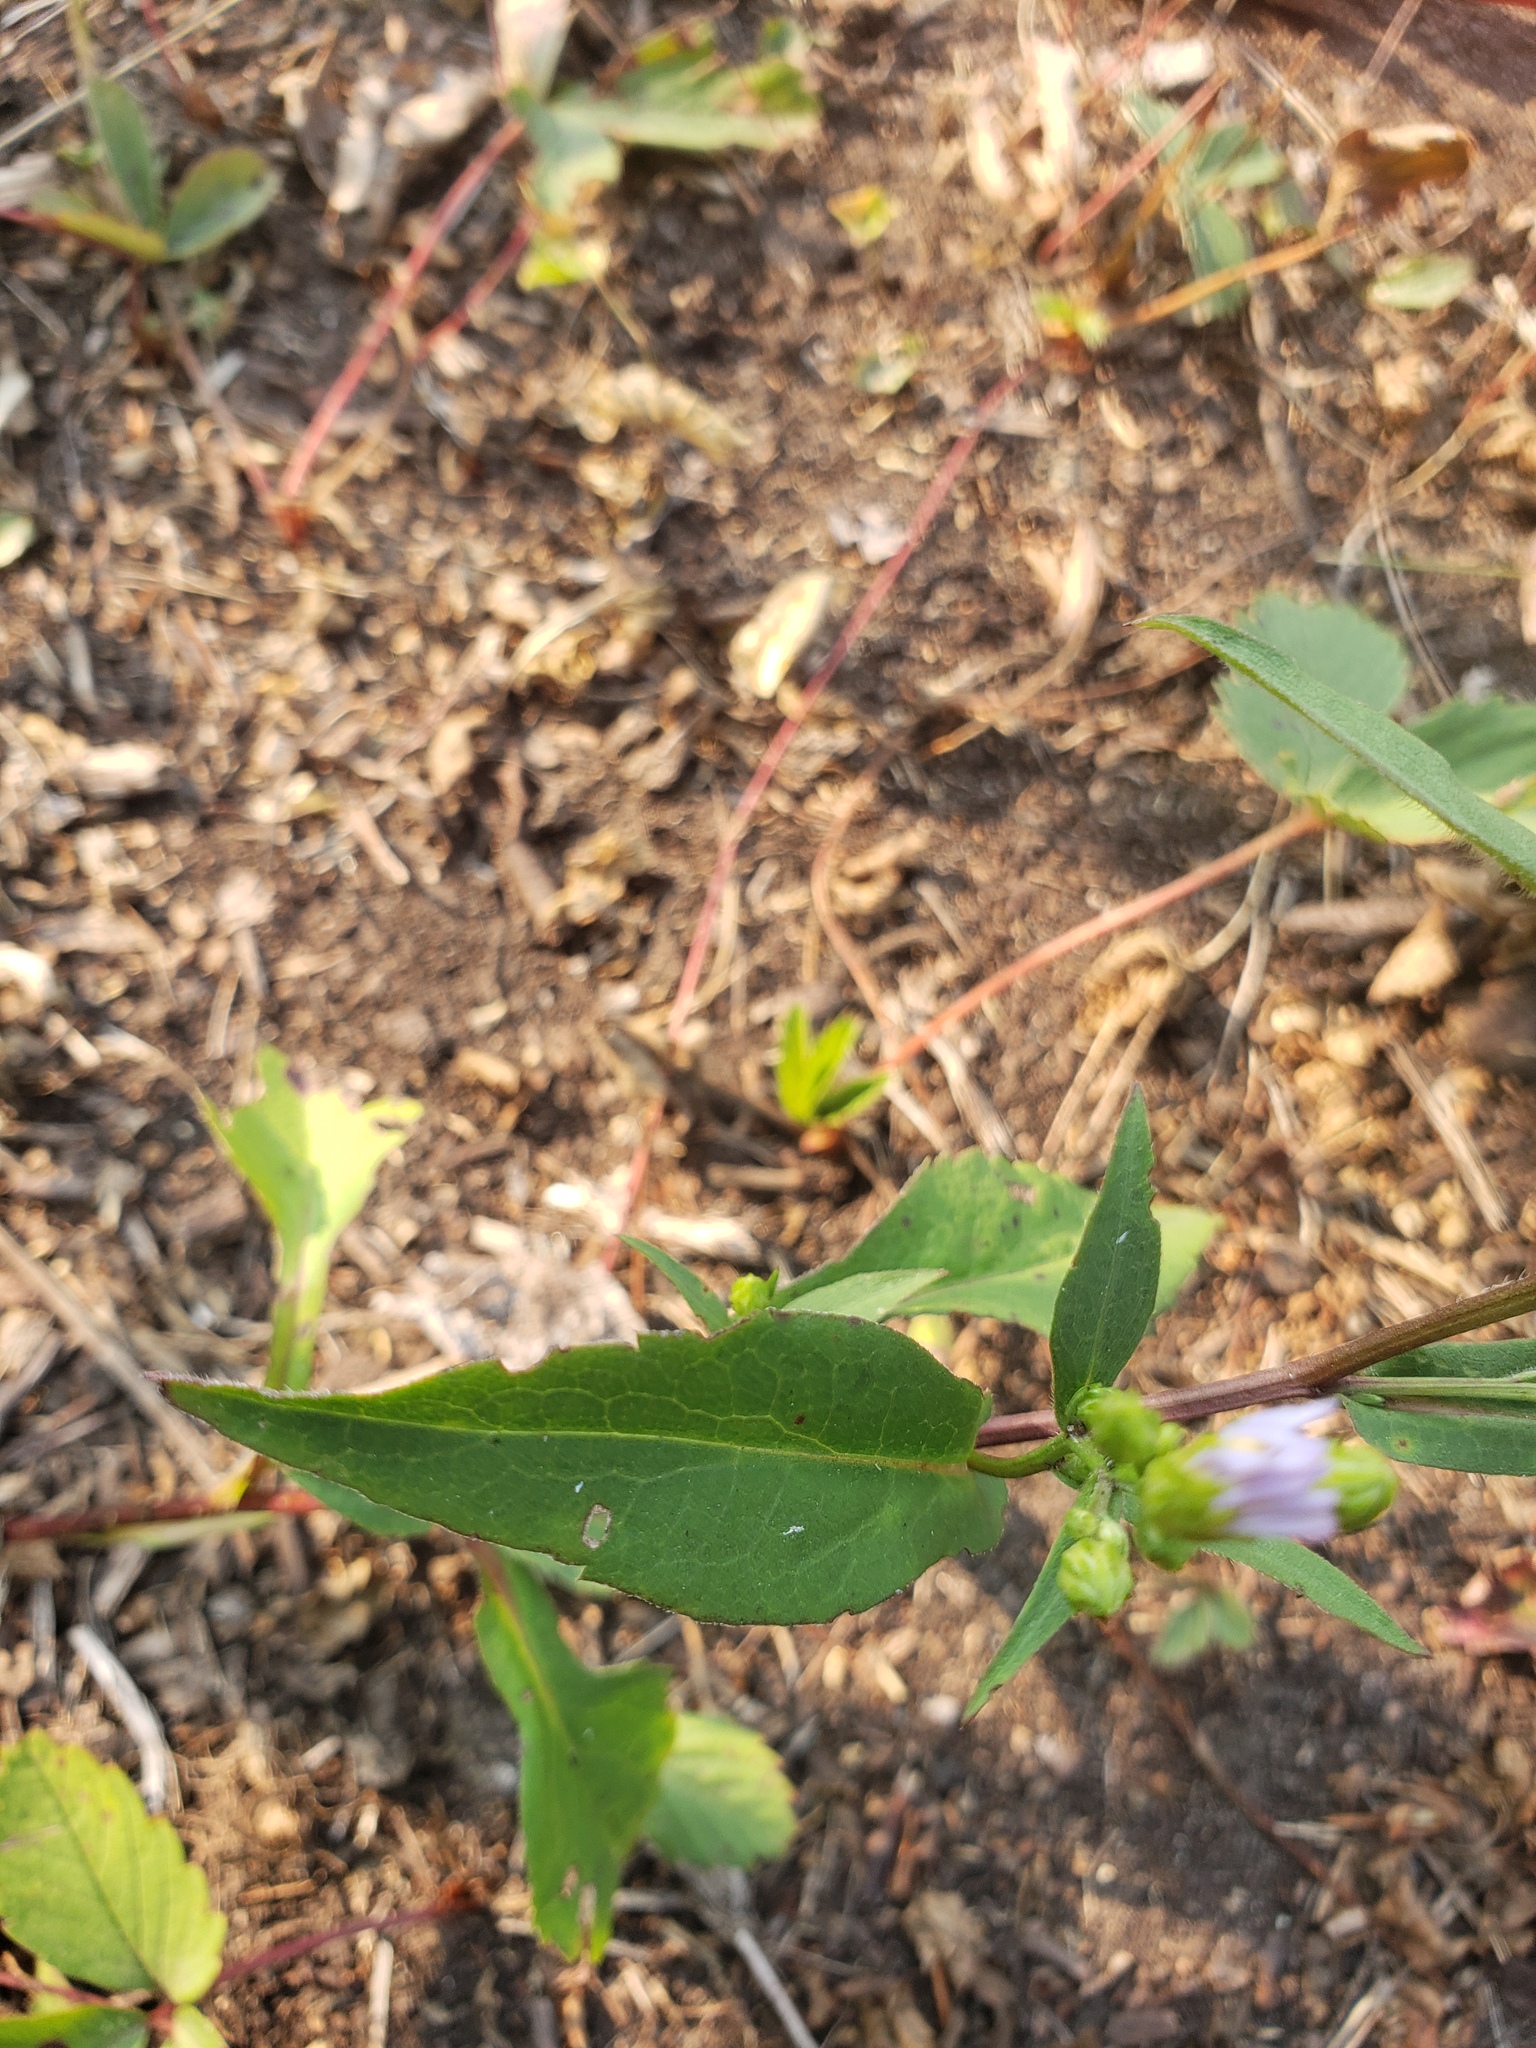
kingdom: Plantae
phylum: Tracheophyta
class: Magnoliopsida
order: Asterales
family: Asteraceae
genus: Symphyotrichum
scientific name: Symphyotrichum ciliolatum
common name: Fringed blue aster
